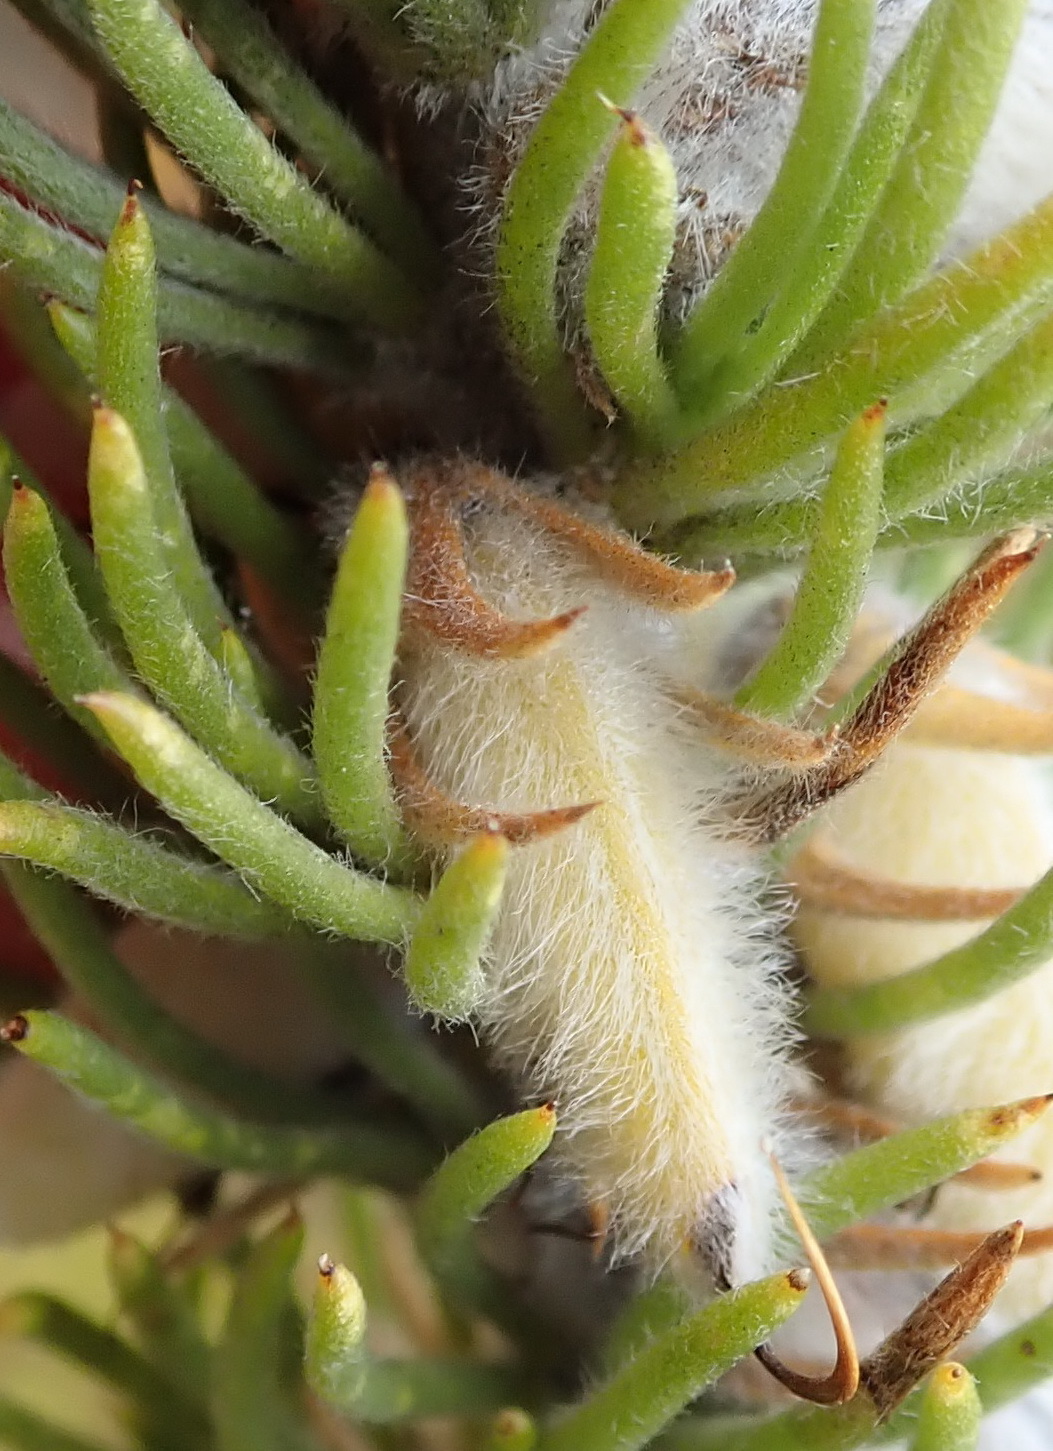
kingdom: Plantae
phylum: Tracheophyta
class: Magnoliopsida
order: Fabales
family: Fabaceae
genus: Aspalathus
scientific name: Aspalathus acanthes
